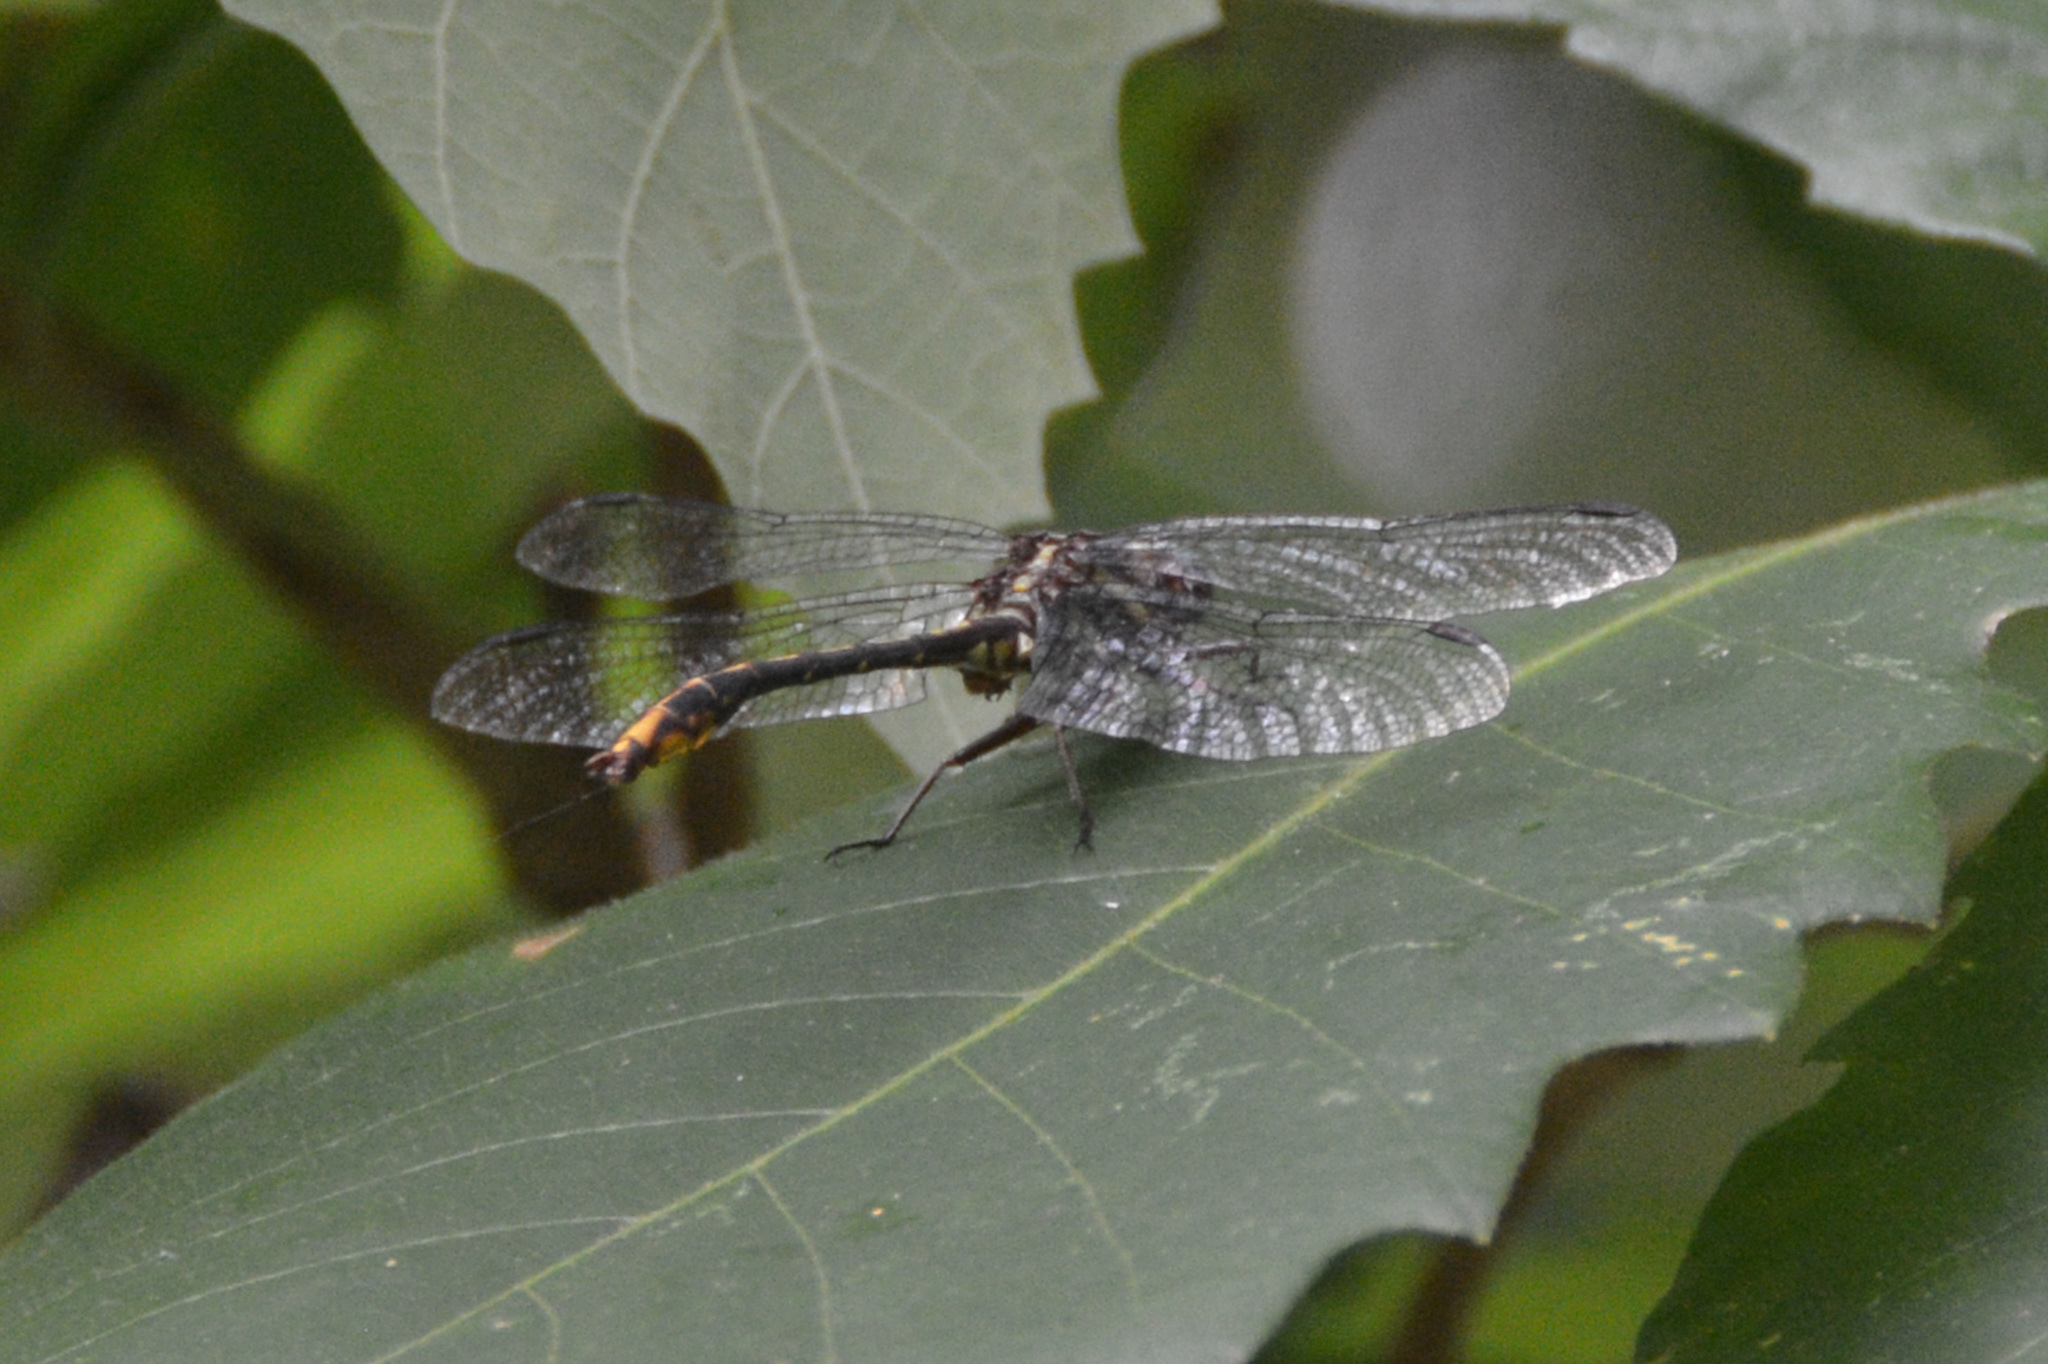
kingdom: Animalia
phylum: Arthropoda
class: Insecta
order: Odonata
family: Gomphidae
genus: Phanogomphus
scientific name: Phanogomphus exilis
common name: Lancet clubtail
